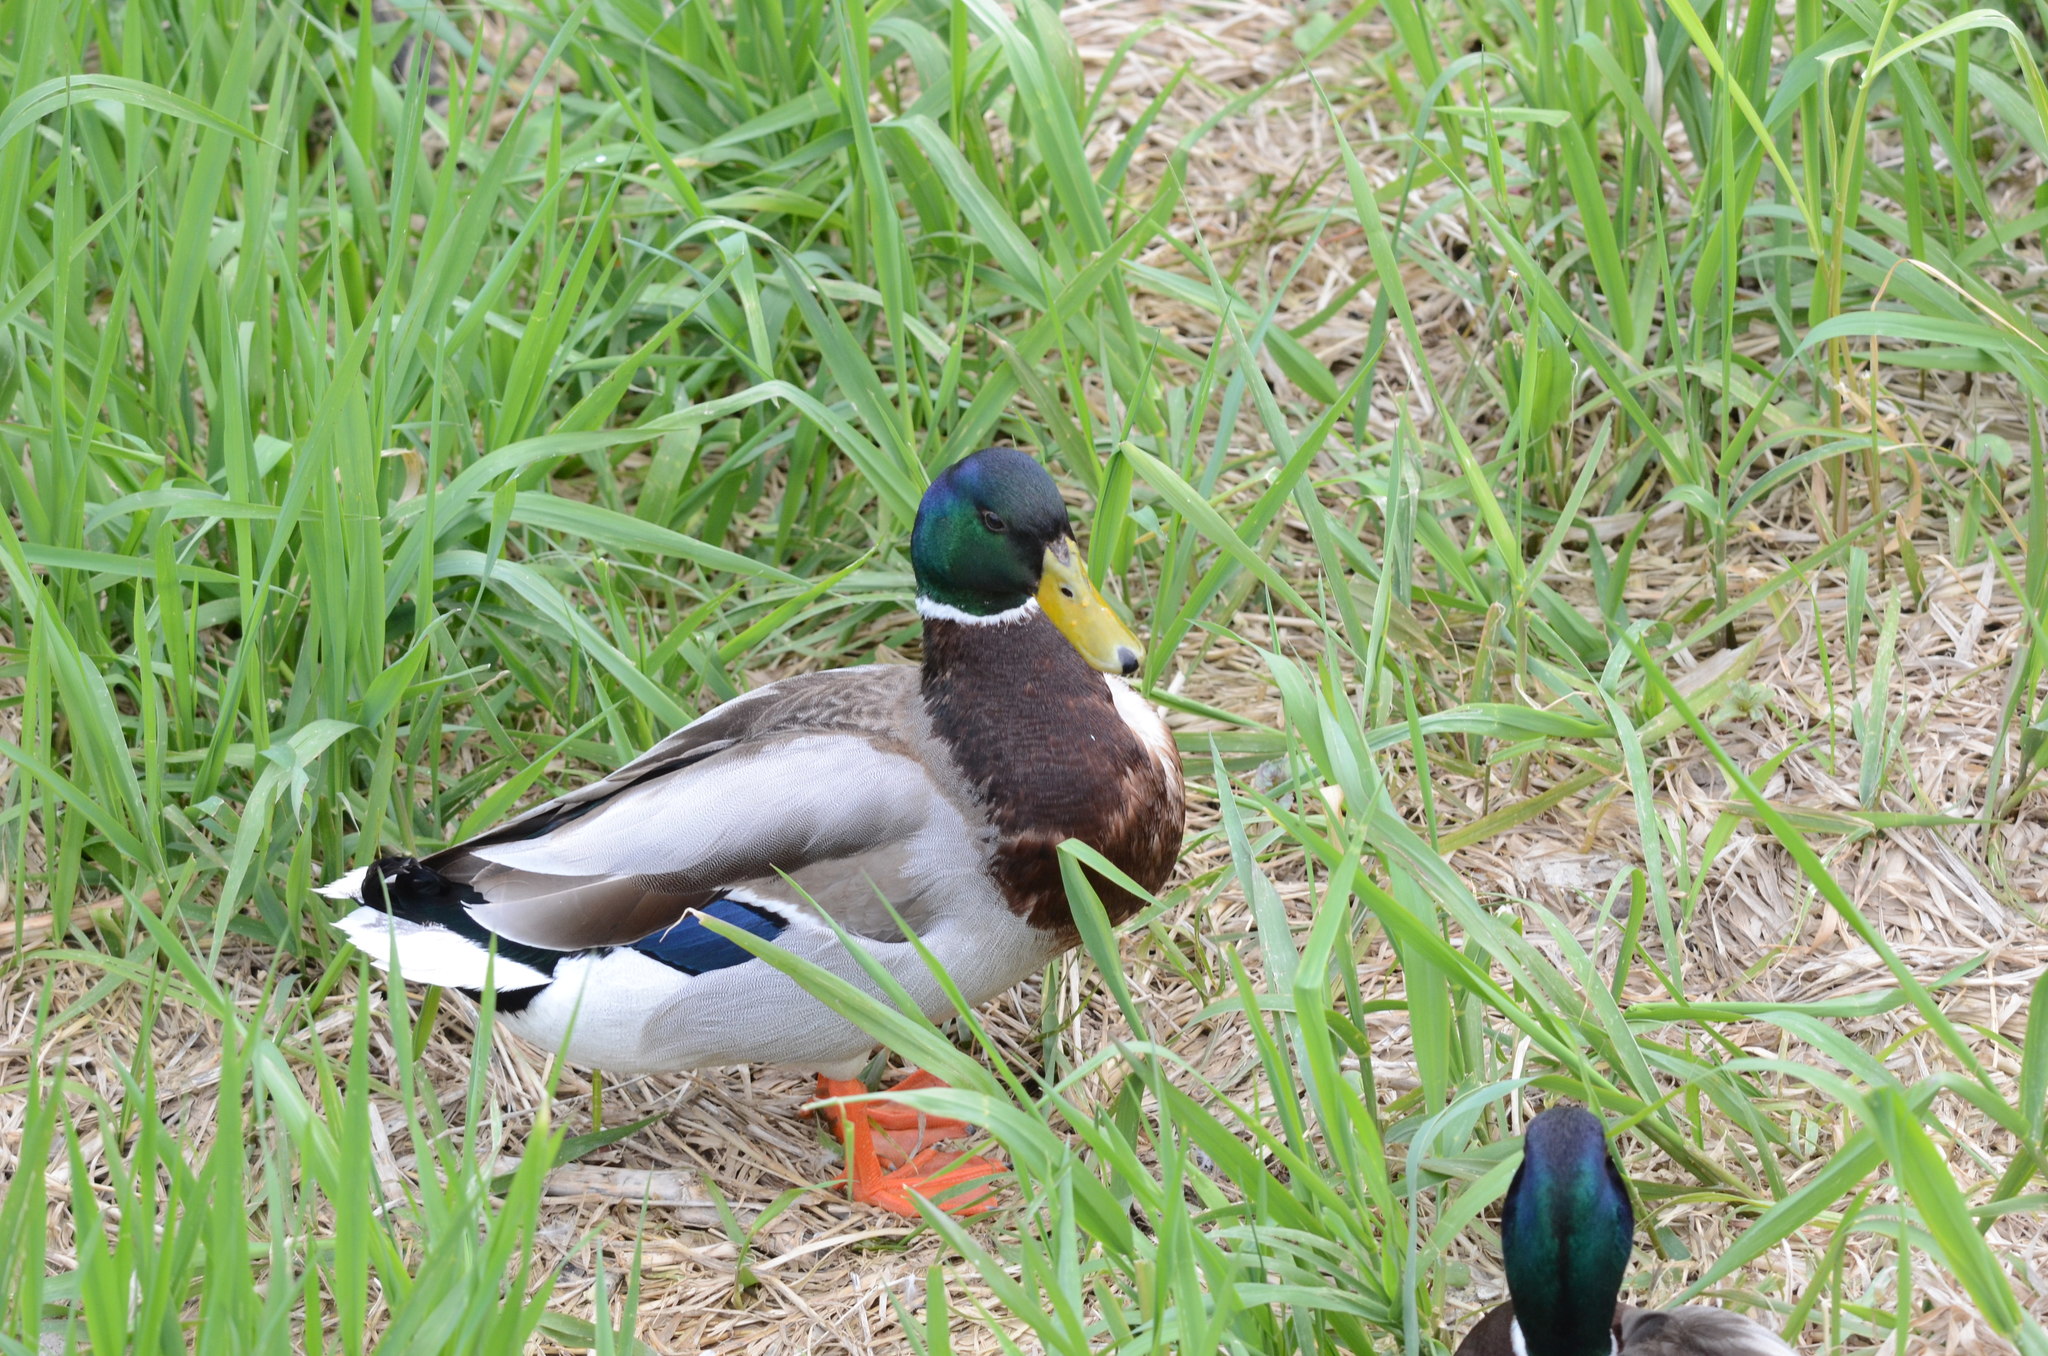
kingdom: Animalia
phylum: Chordata
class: Aves
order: Anseriformes
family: Anatidae
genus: Anas
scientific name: Anas platyrhynchos
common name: Mallard
